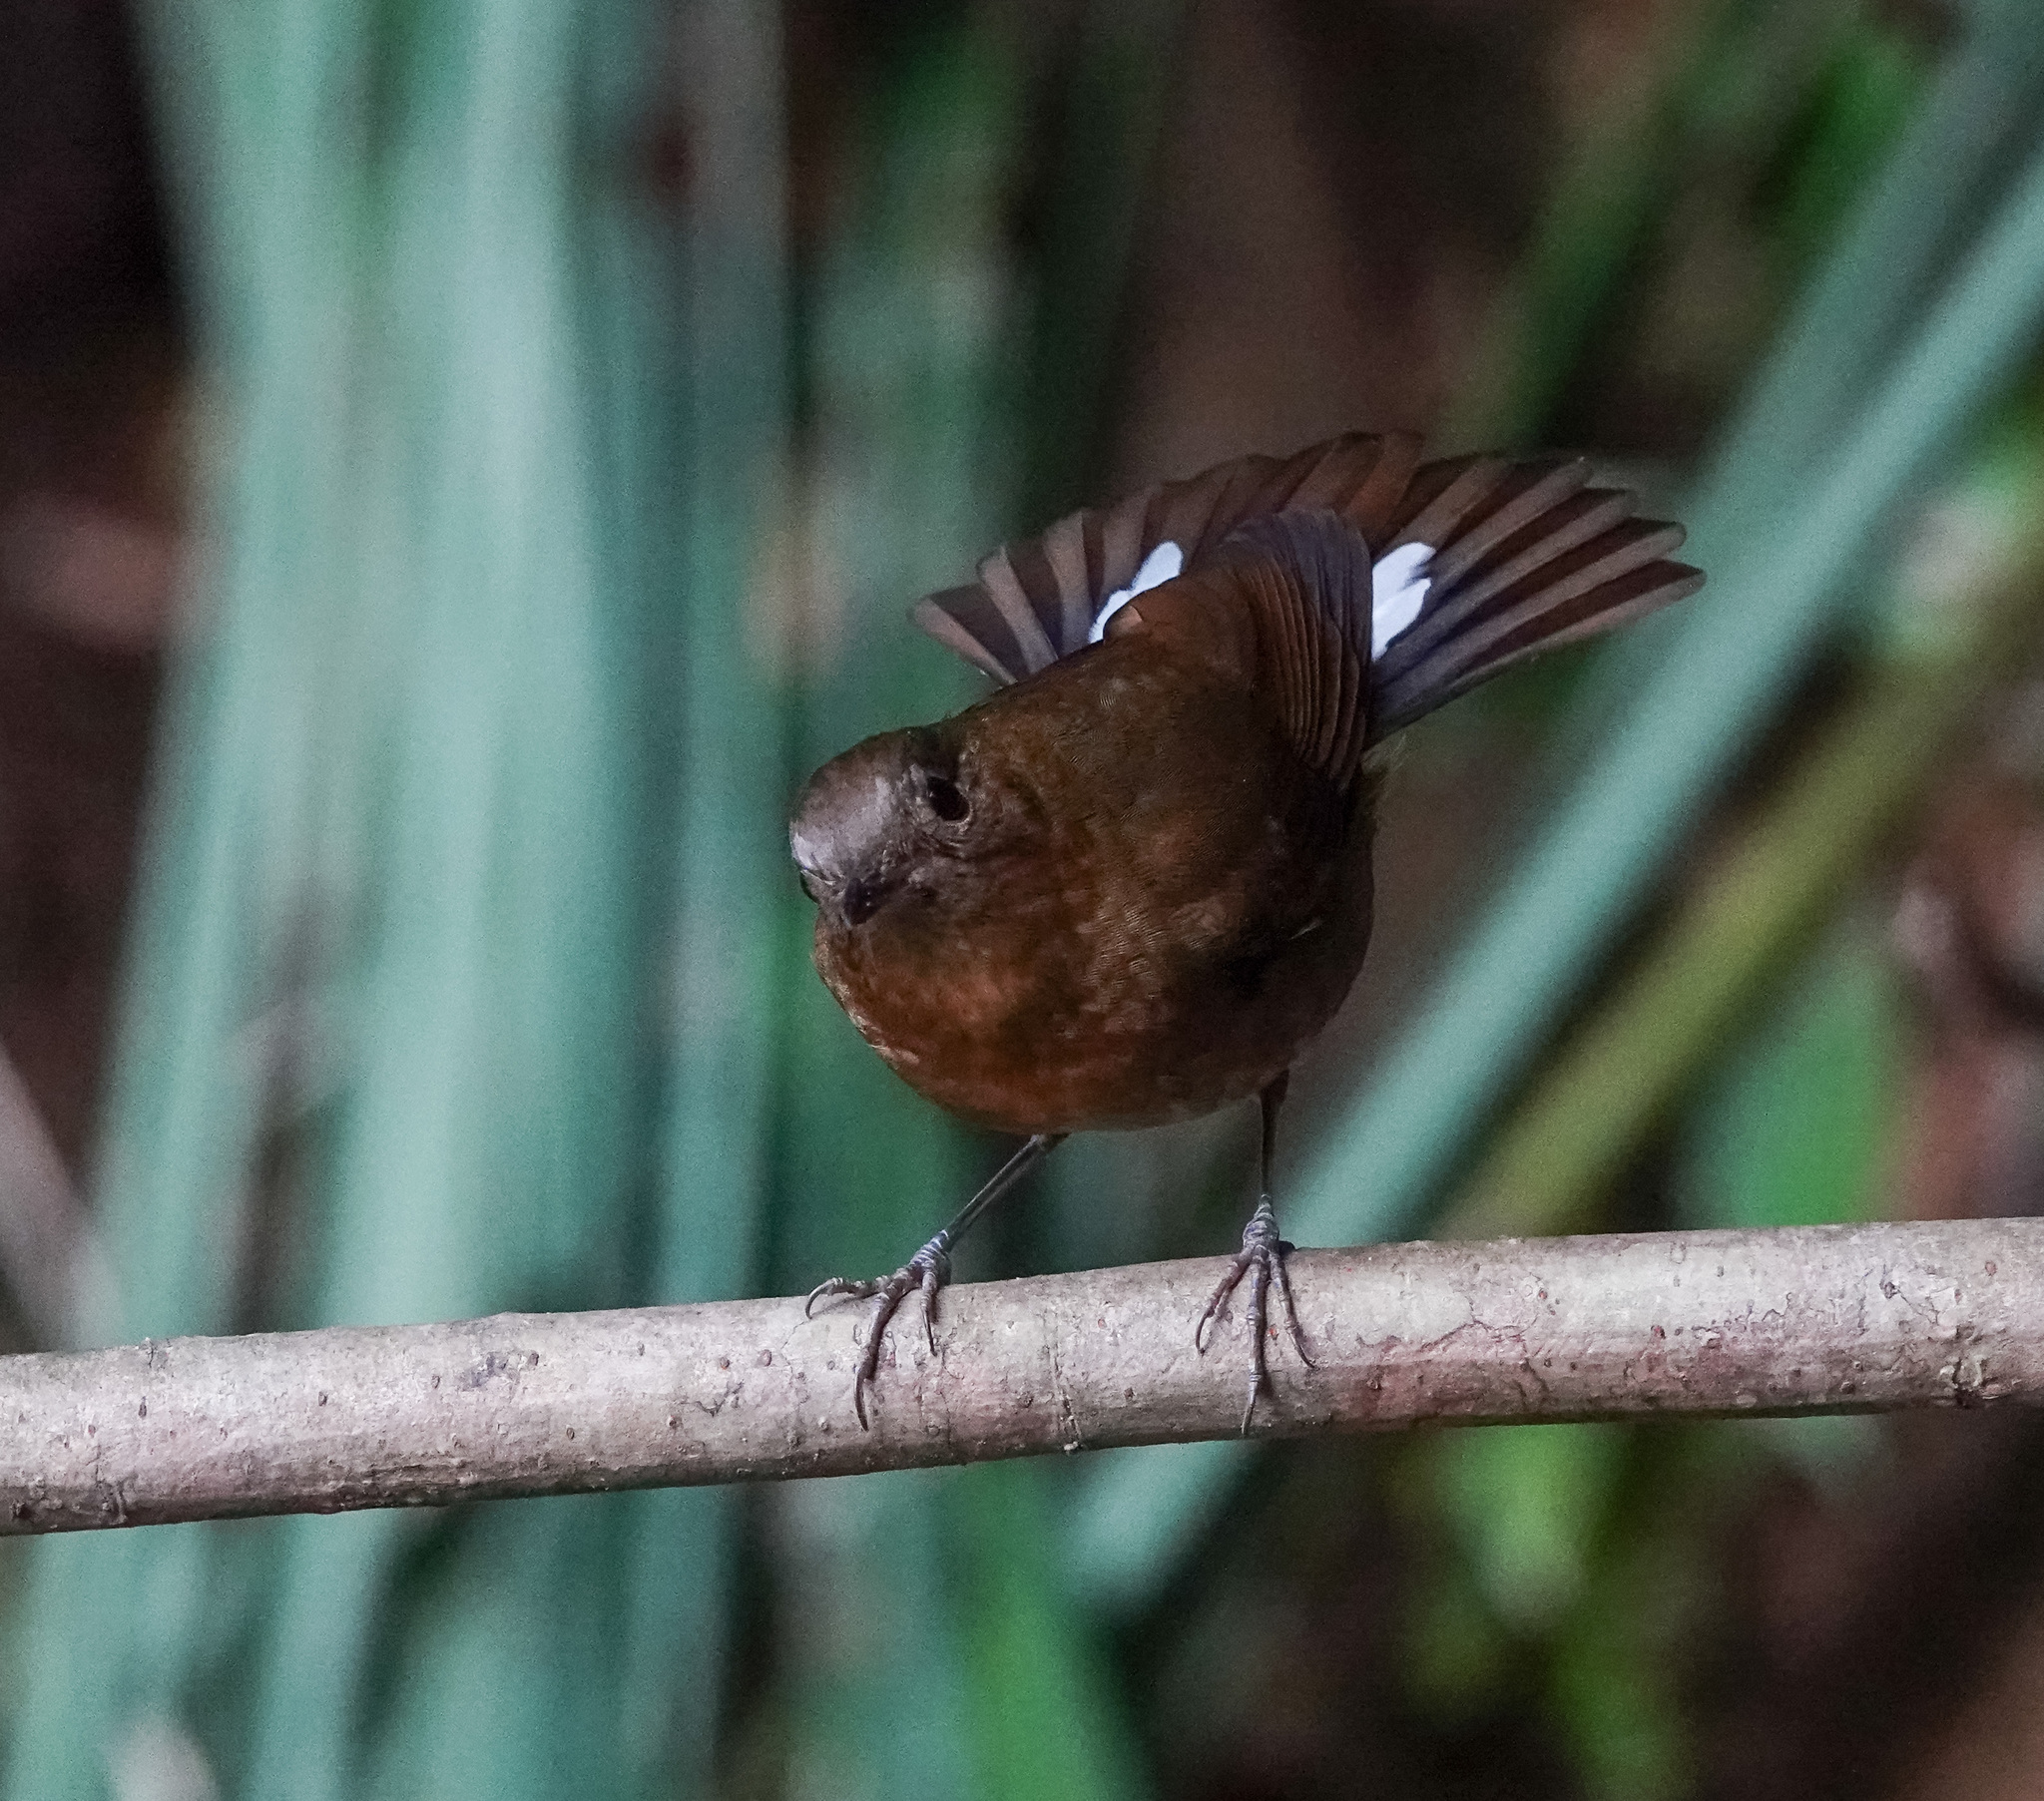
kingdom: Animalia
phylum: Chordata
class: Aves
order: Passeriformes
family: Muscicapidae
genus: Myiomela
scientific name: Myiomela leucura
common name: White-tailed robin
